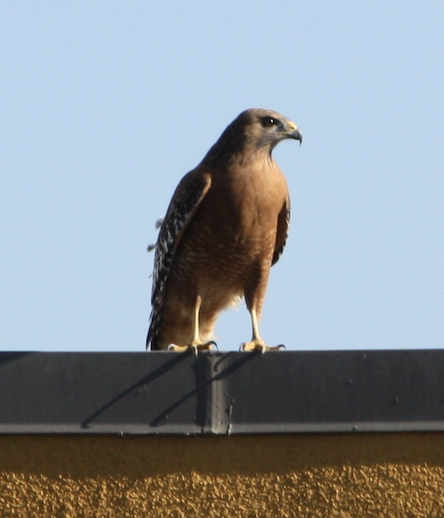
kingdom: Animalia
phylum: Chordata
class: Aves
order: Accipitriformes
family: Accipitridae
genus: Buteo
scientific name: Buteo lineatus
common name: Red-shouldered hawk
